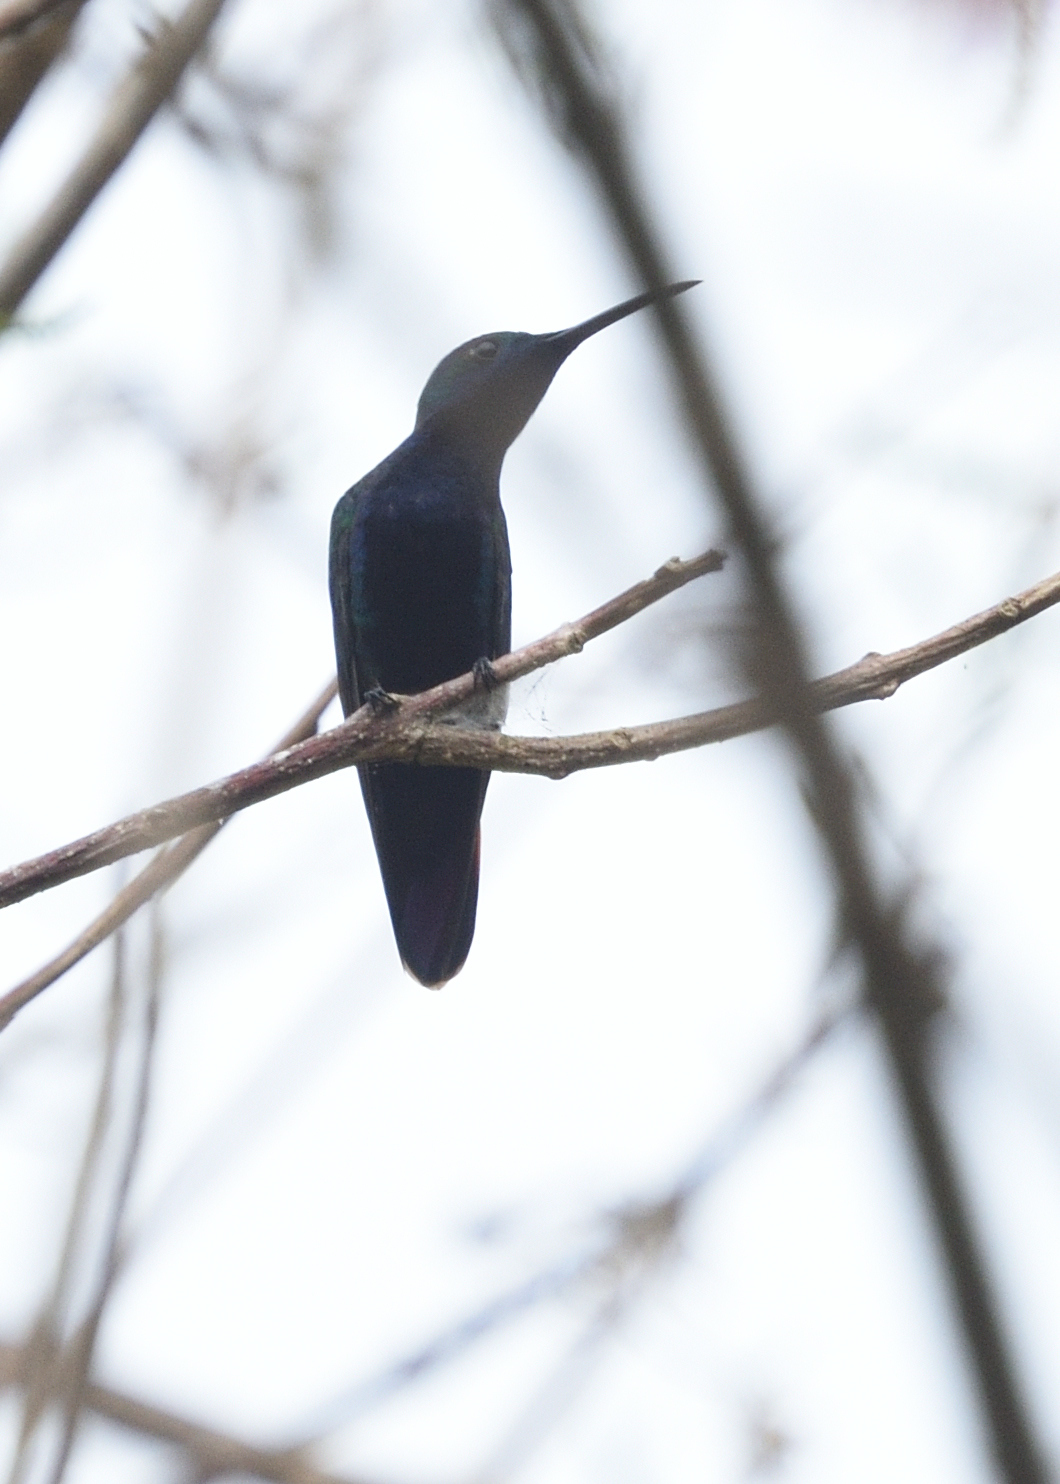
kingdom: Animalia
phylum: Chordata
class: Aves
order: Apodiformes
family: Trochilidae
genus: Anthracothorax
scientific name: Anthracothorax nigricollis
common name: Black-throated mango
